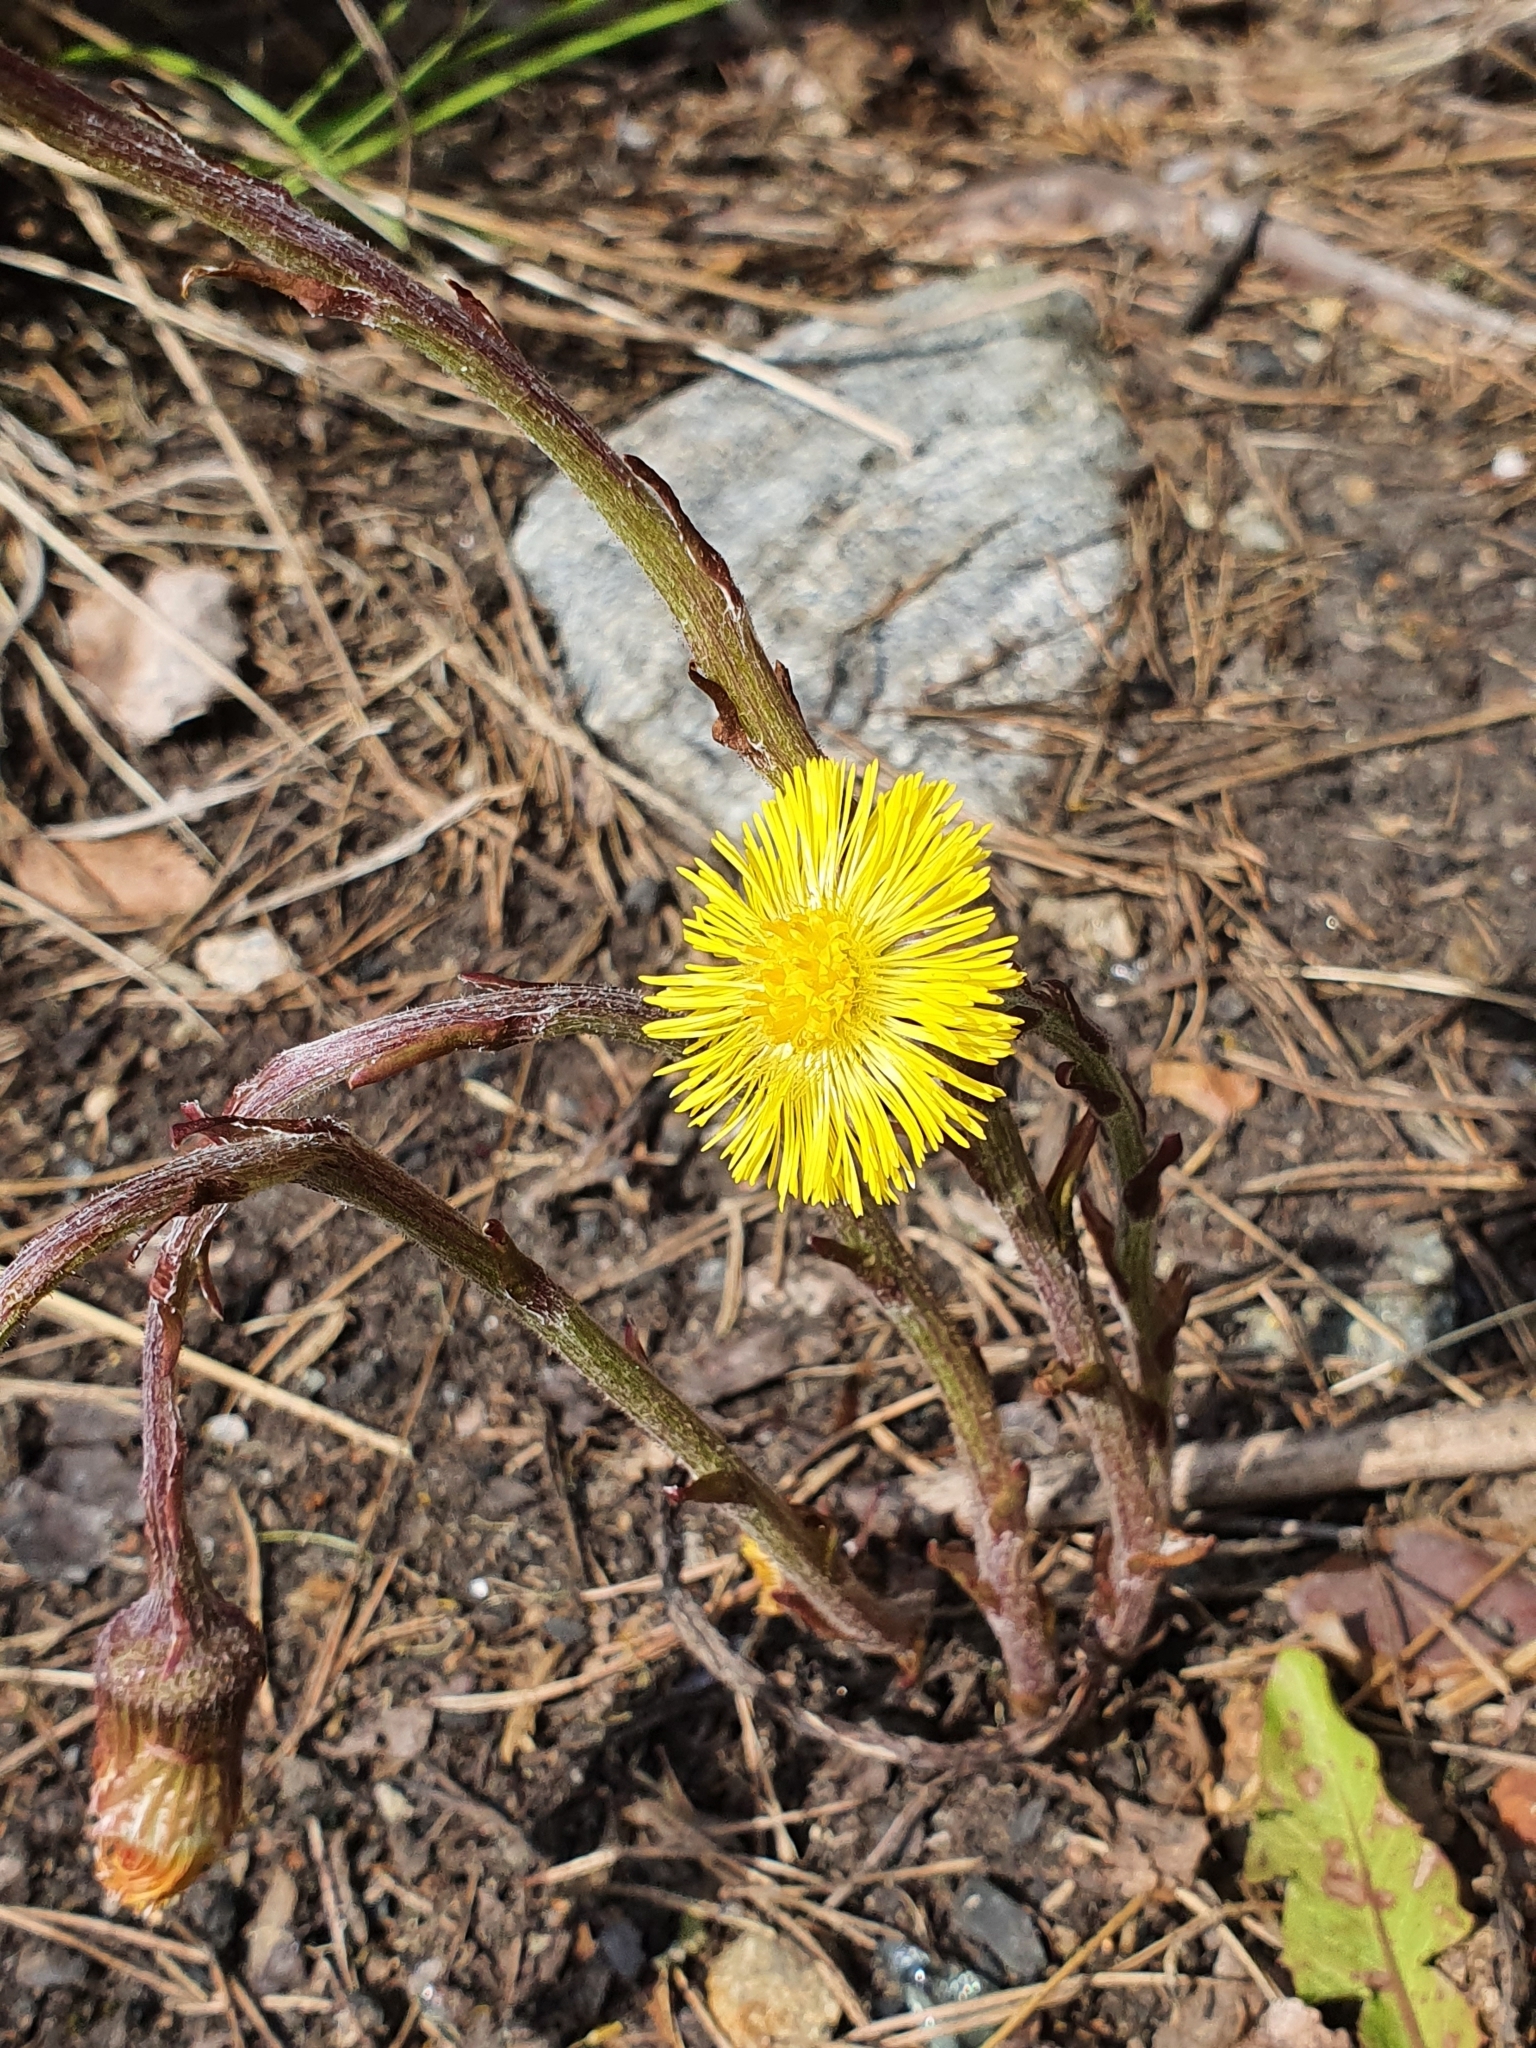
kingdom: Plantae
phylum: Tracheophyta
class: Magnoliopsida
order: Asterales
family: Asteraceae
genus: Tussilago
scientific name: Tussilago farfara
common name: Coltsfoot
